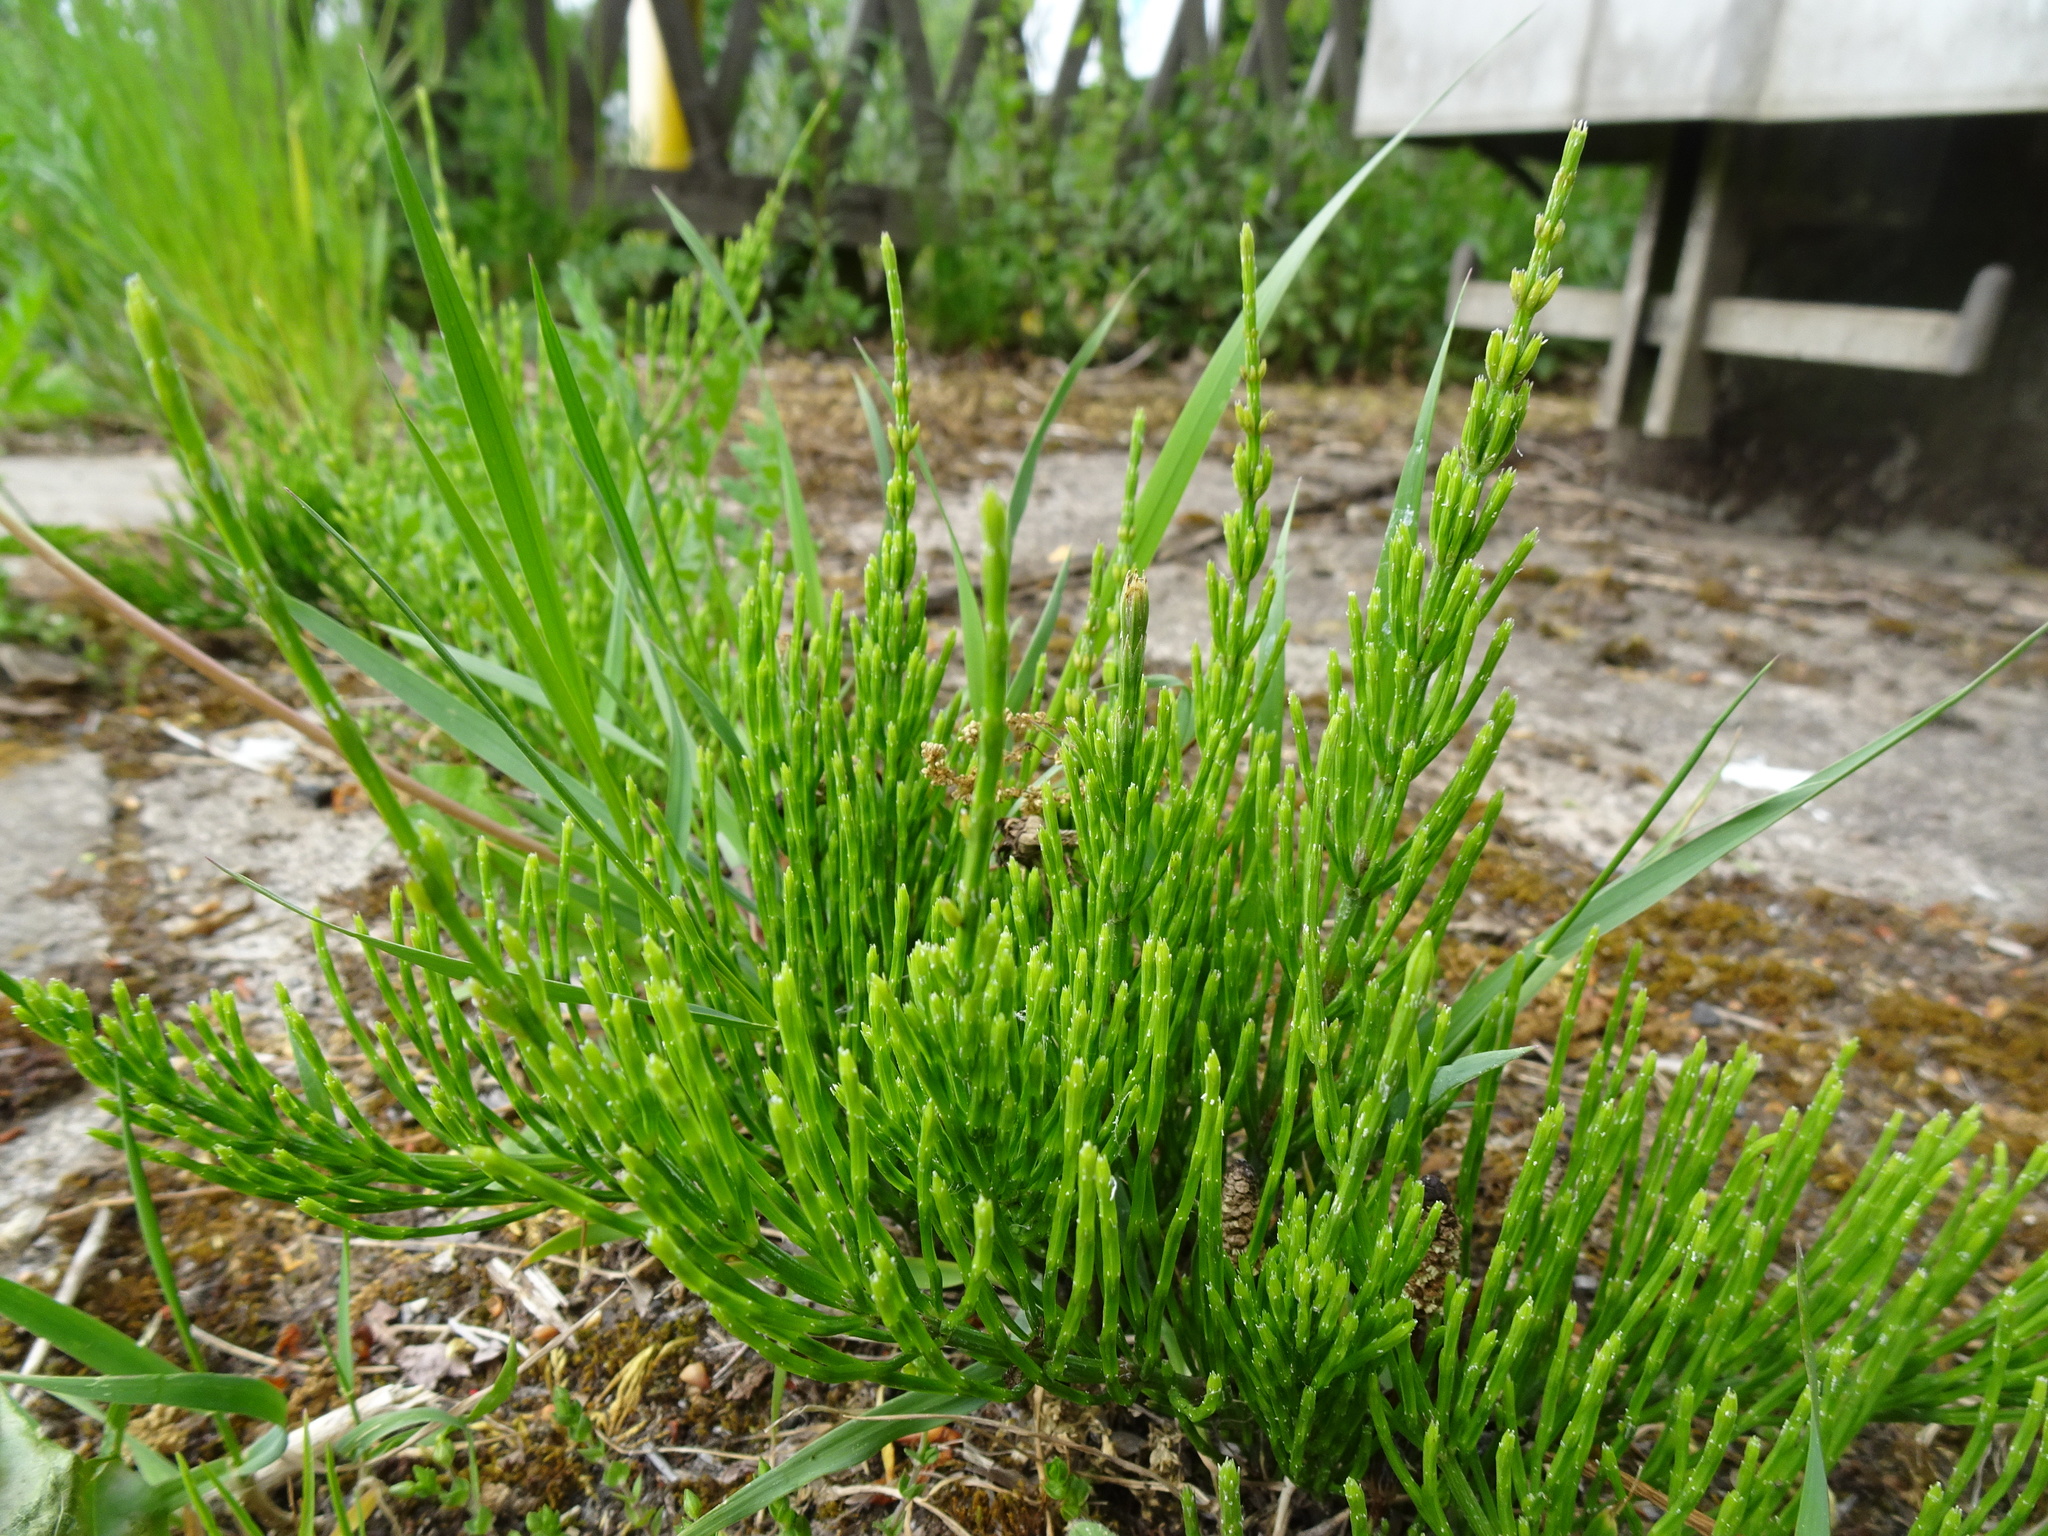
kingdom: Plantae
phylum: Tracheophyta
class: Polypodiopsida
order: Equisetales
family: Equisetaceae
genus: Equisetum
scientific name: Equisetum arvense
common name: Field horsetail
